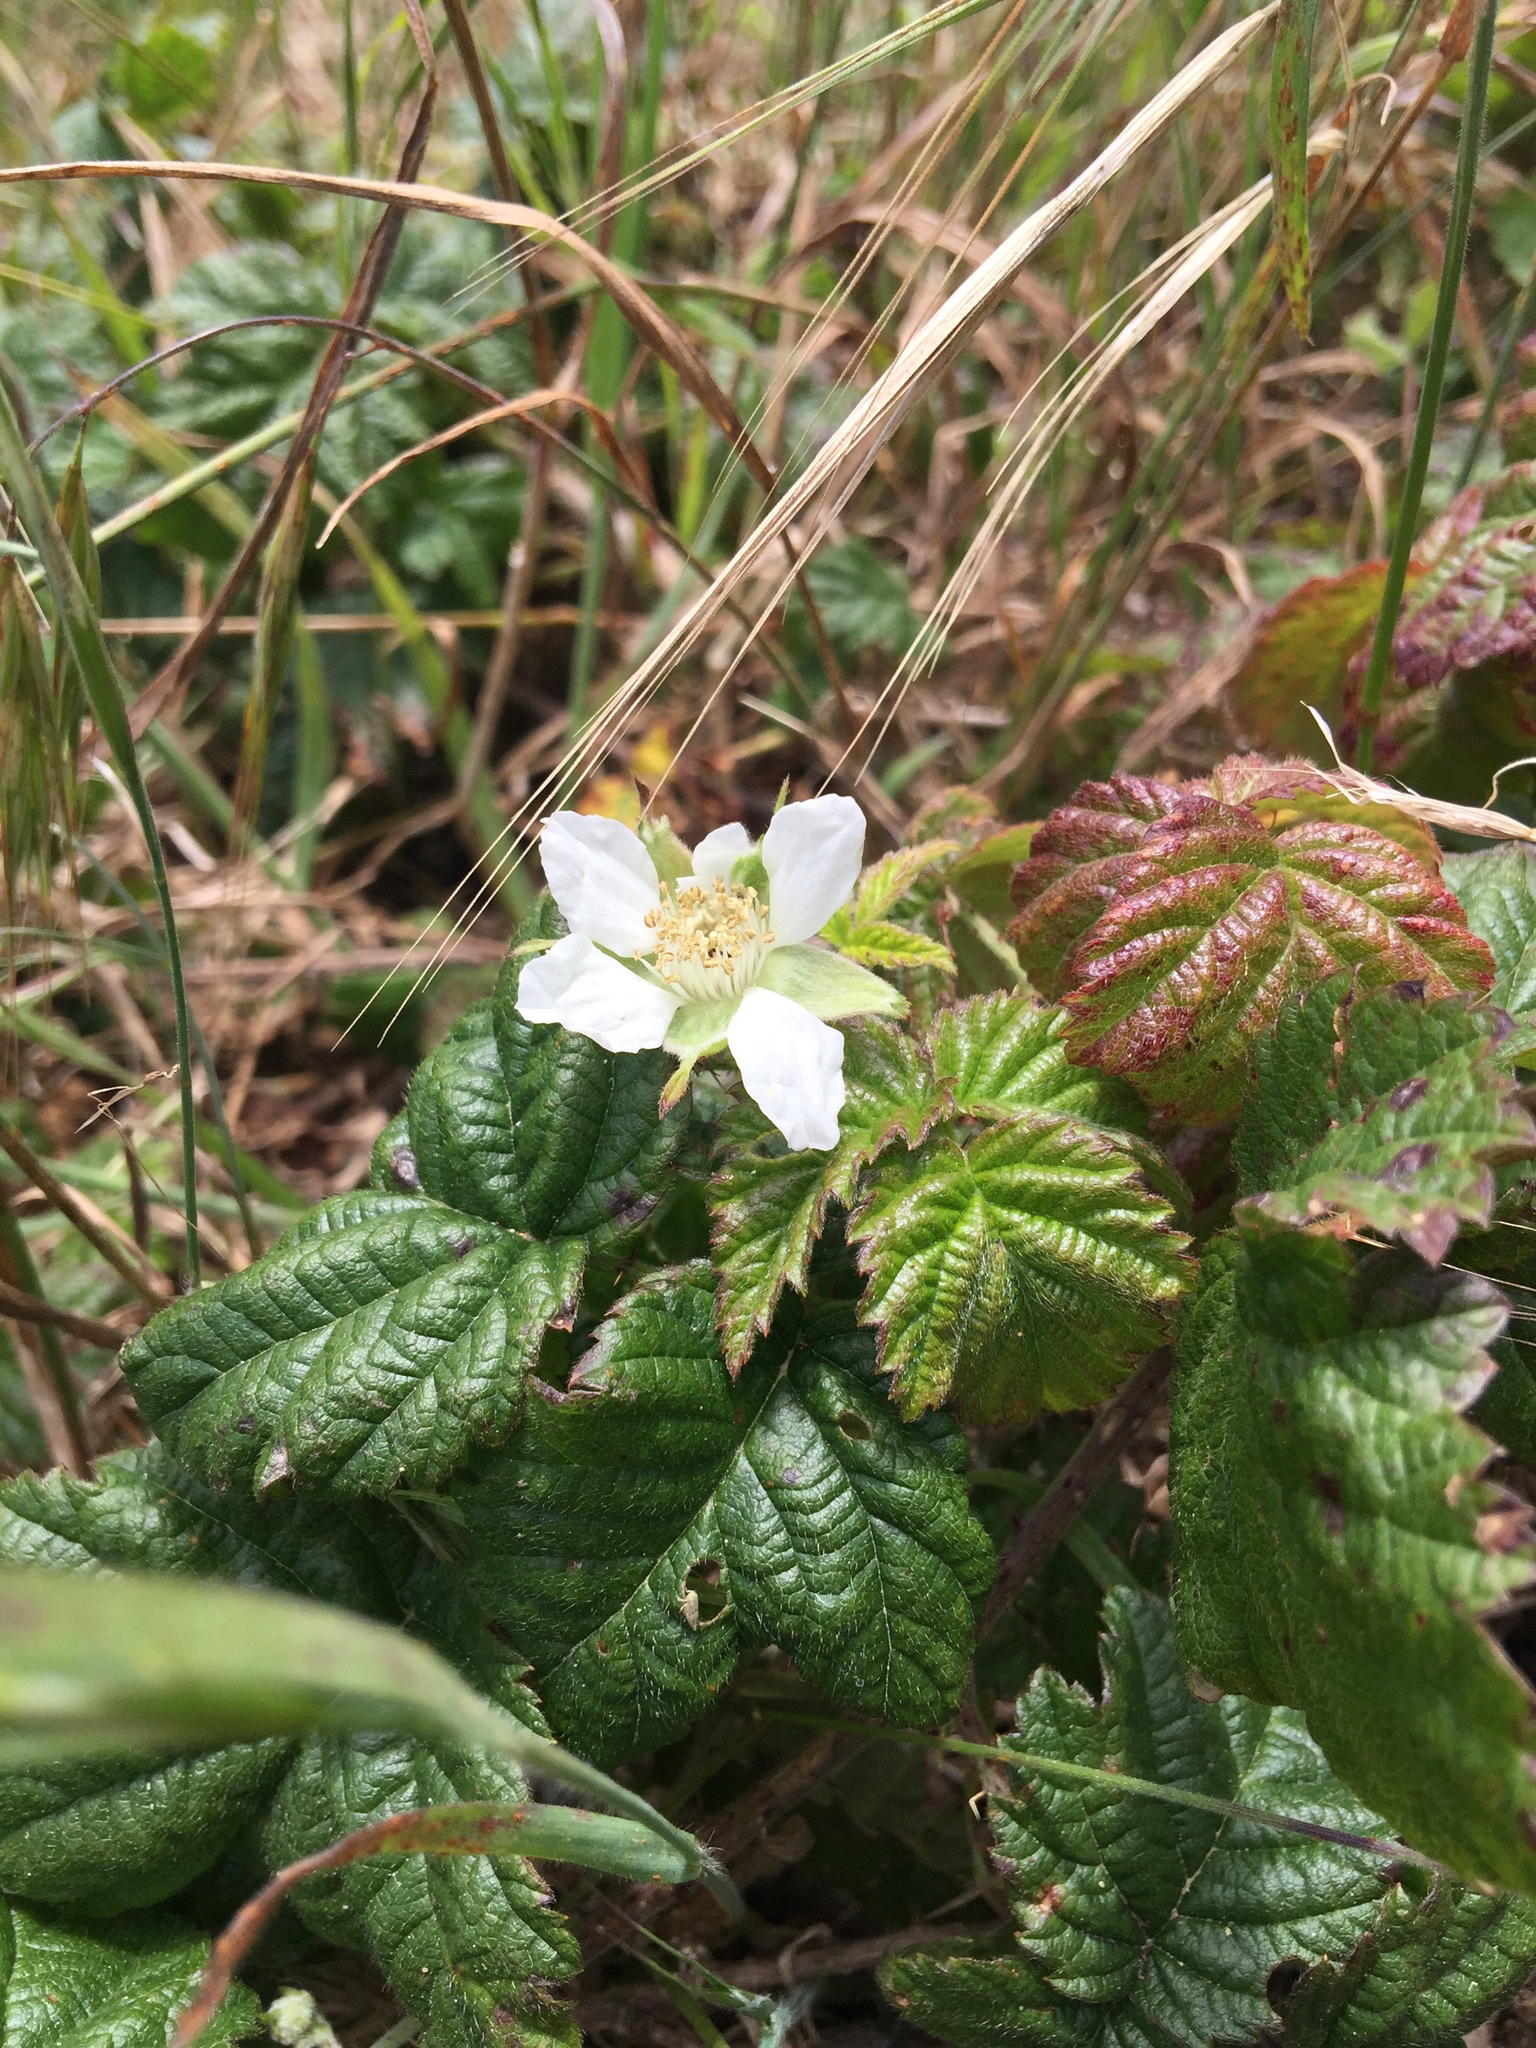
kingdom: Plantae
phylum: Tracheophyta
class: Magnoliopsida
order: Rosales
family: Rosaceae
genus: Rubus
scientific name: Rubus ursinus
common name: Pacific blackberry
